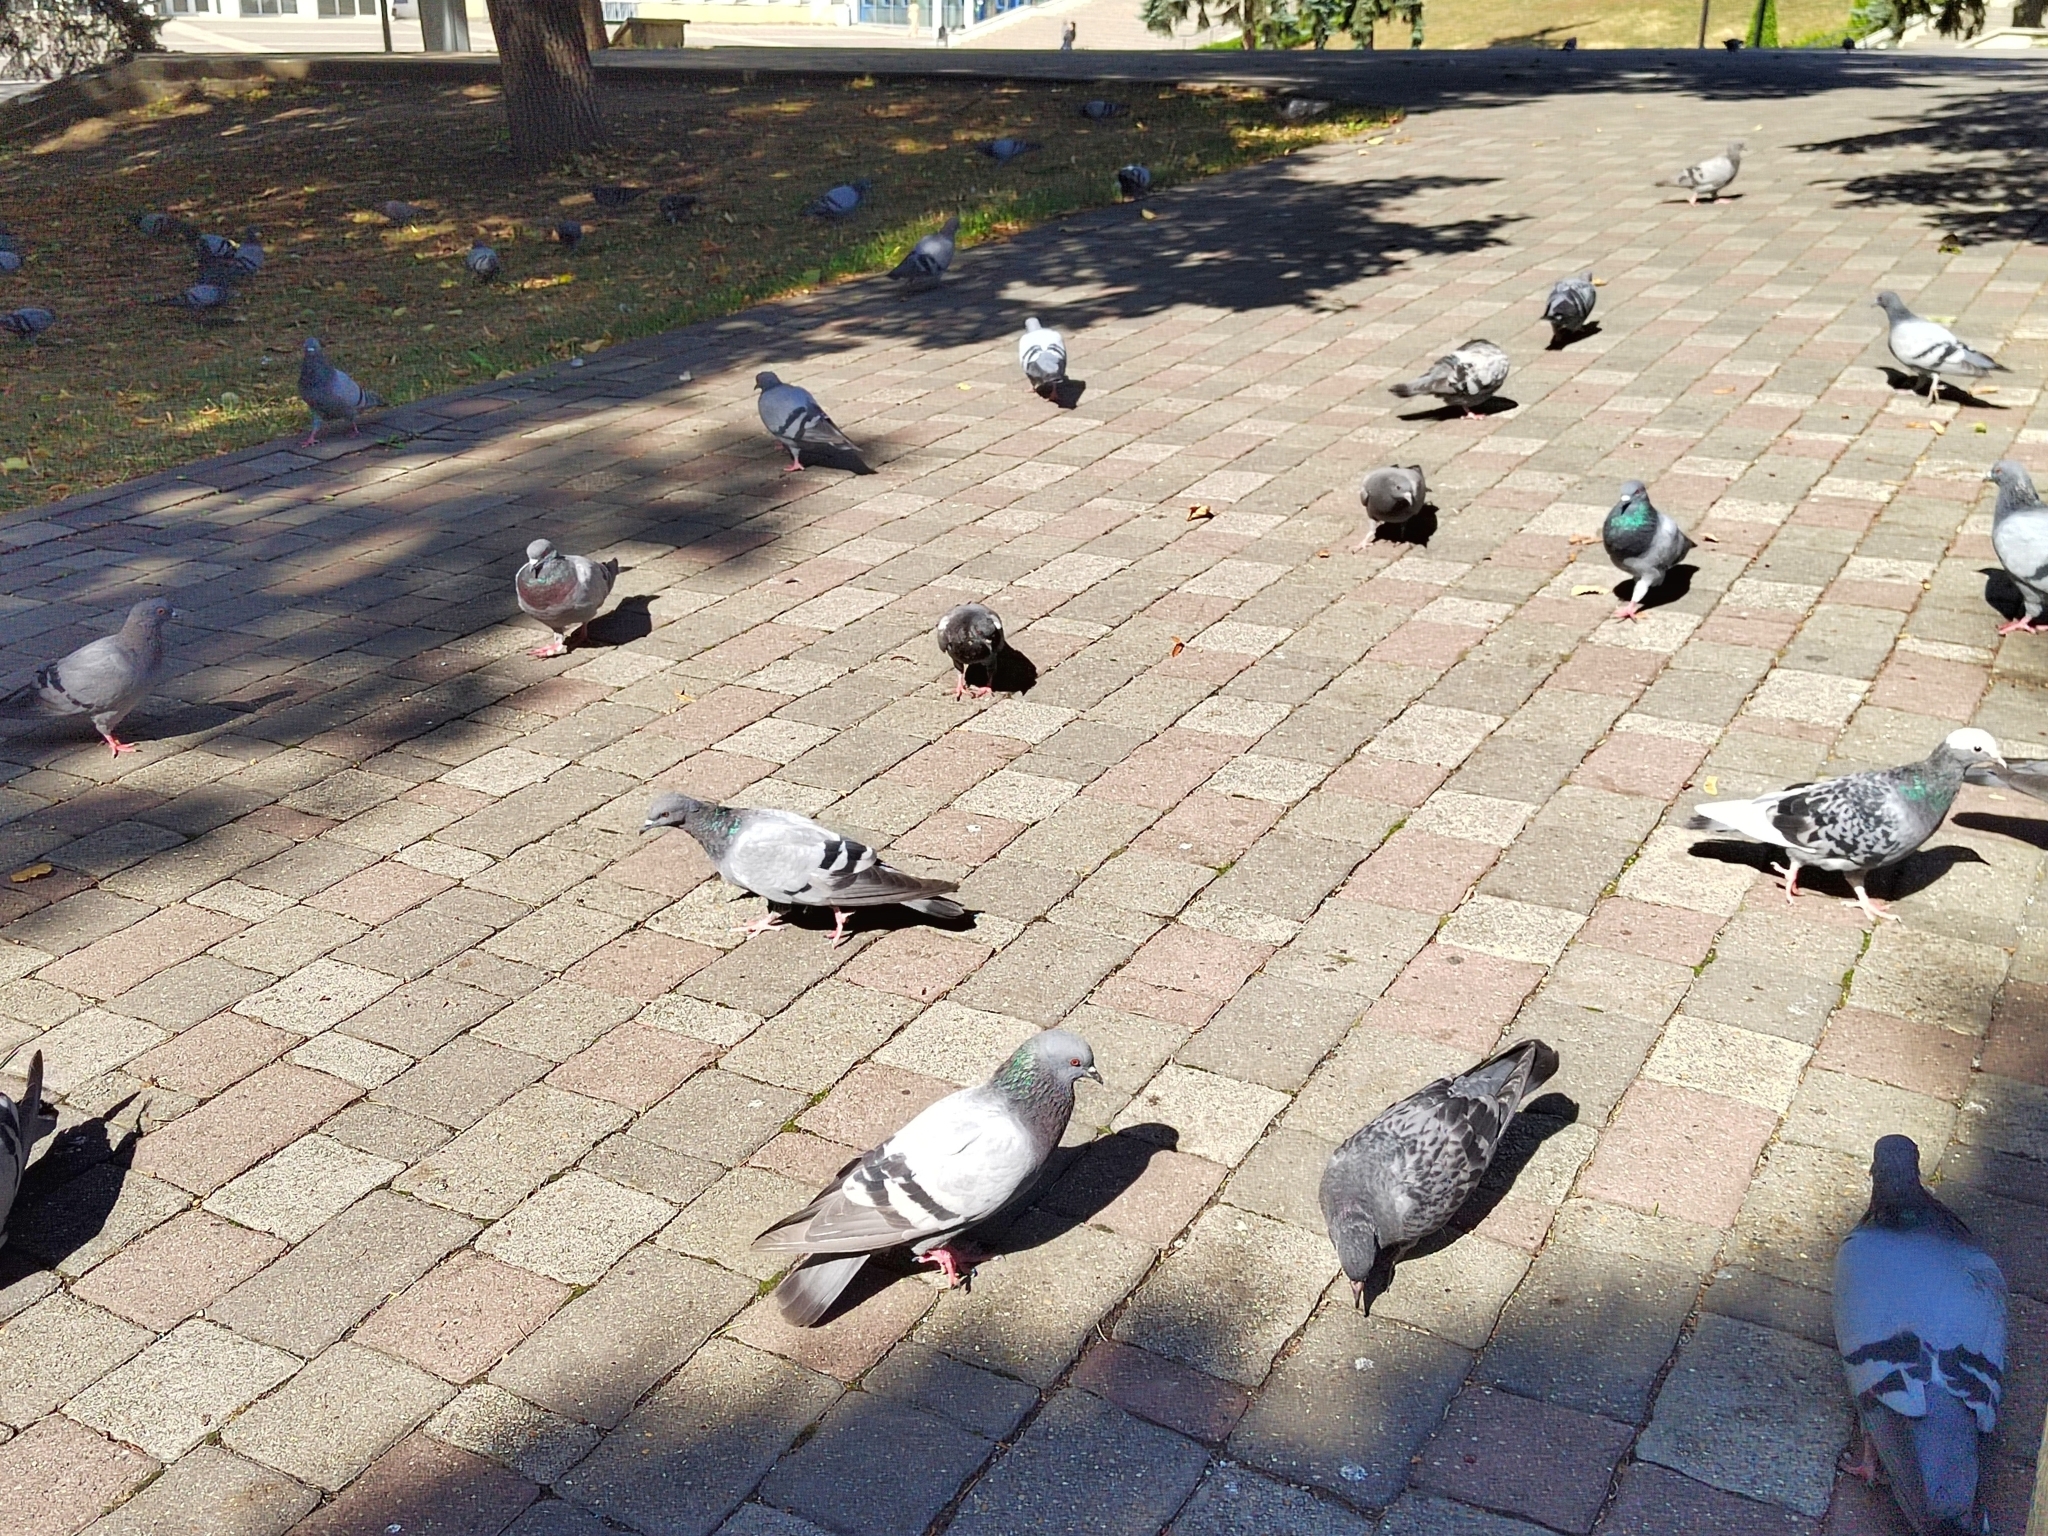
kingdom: Animalia
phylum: Chordata
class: Aves
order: Columbiformes
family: Columbidae
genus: Columba
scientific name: Columba livia
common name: Rock pigeon
